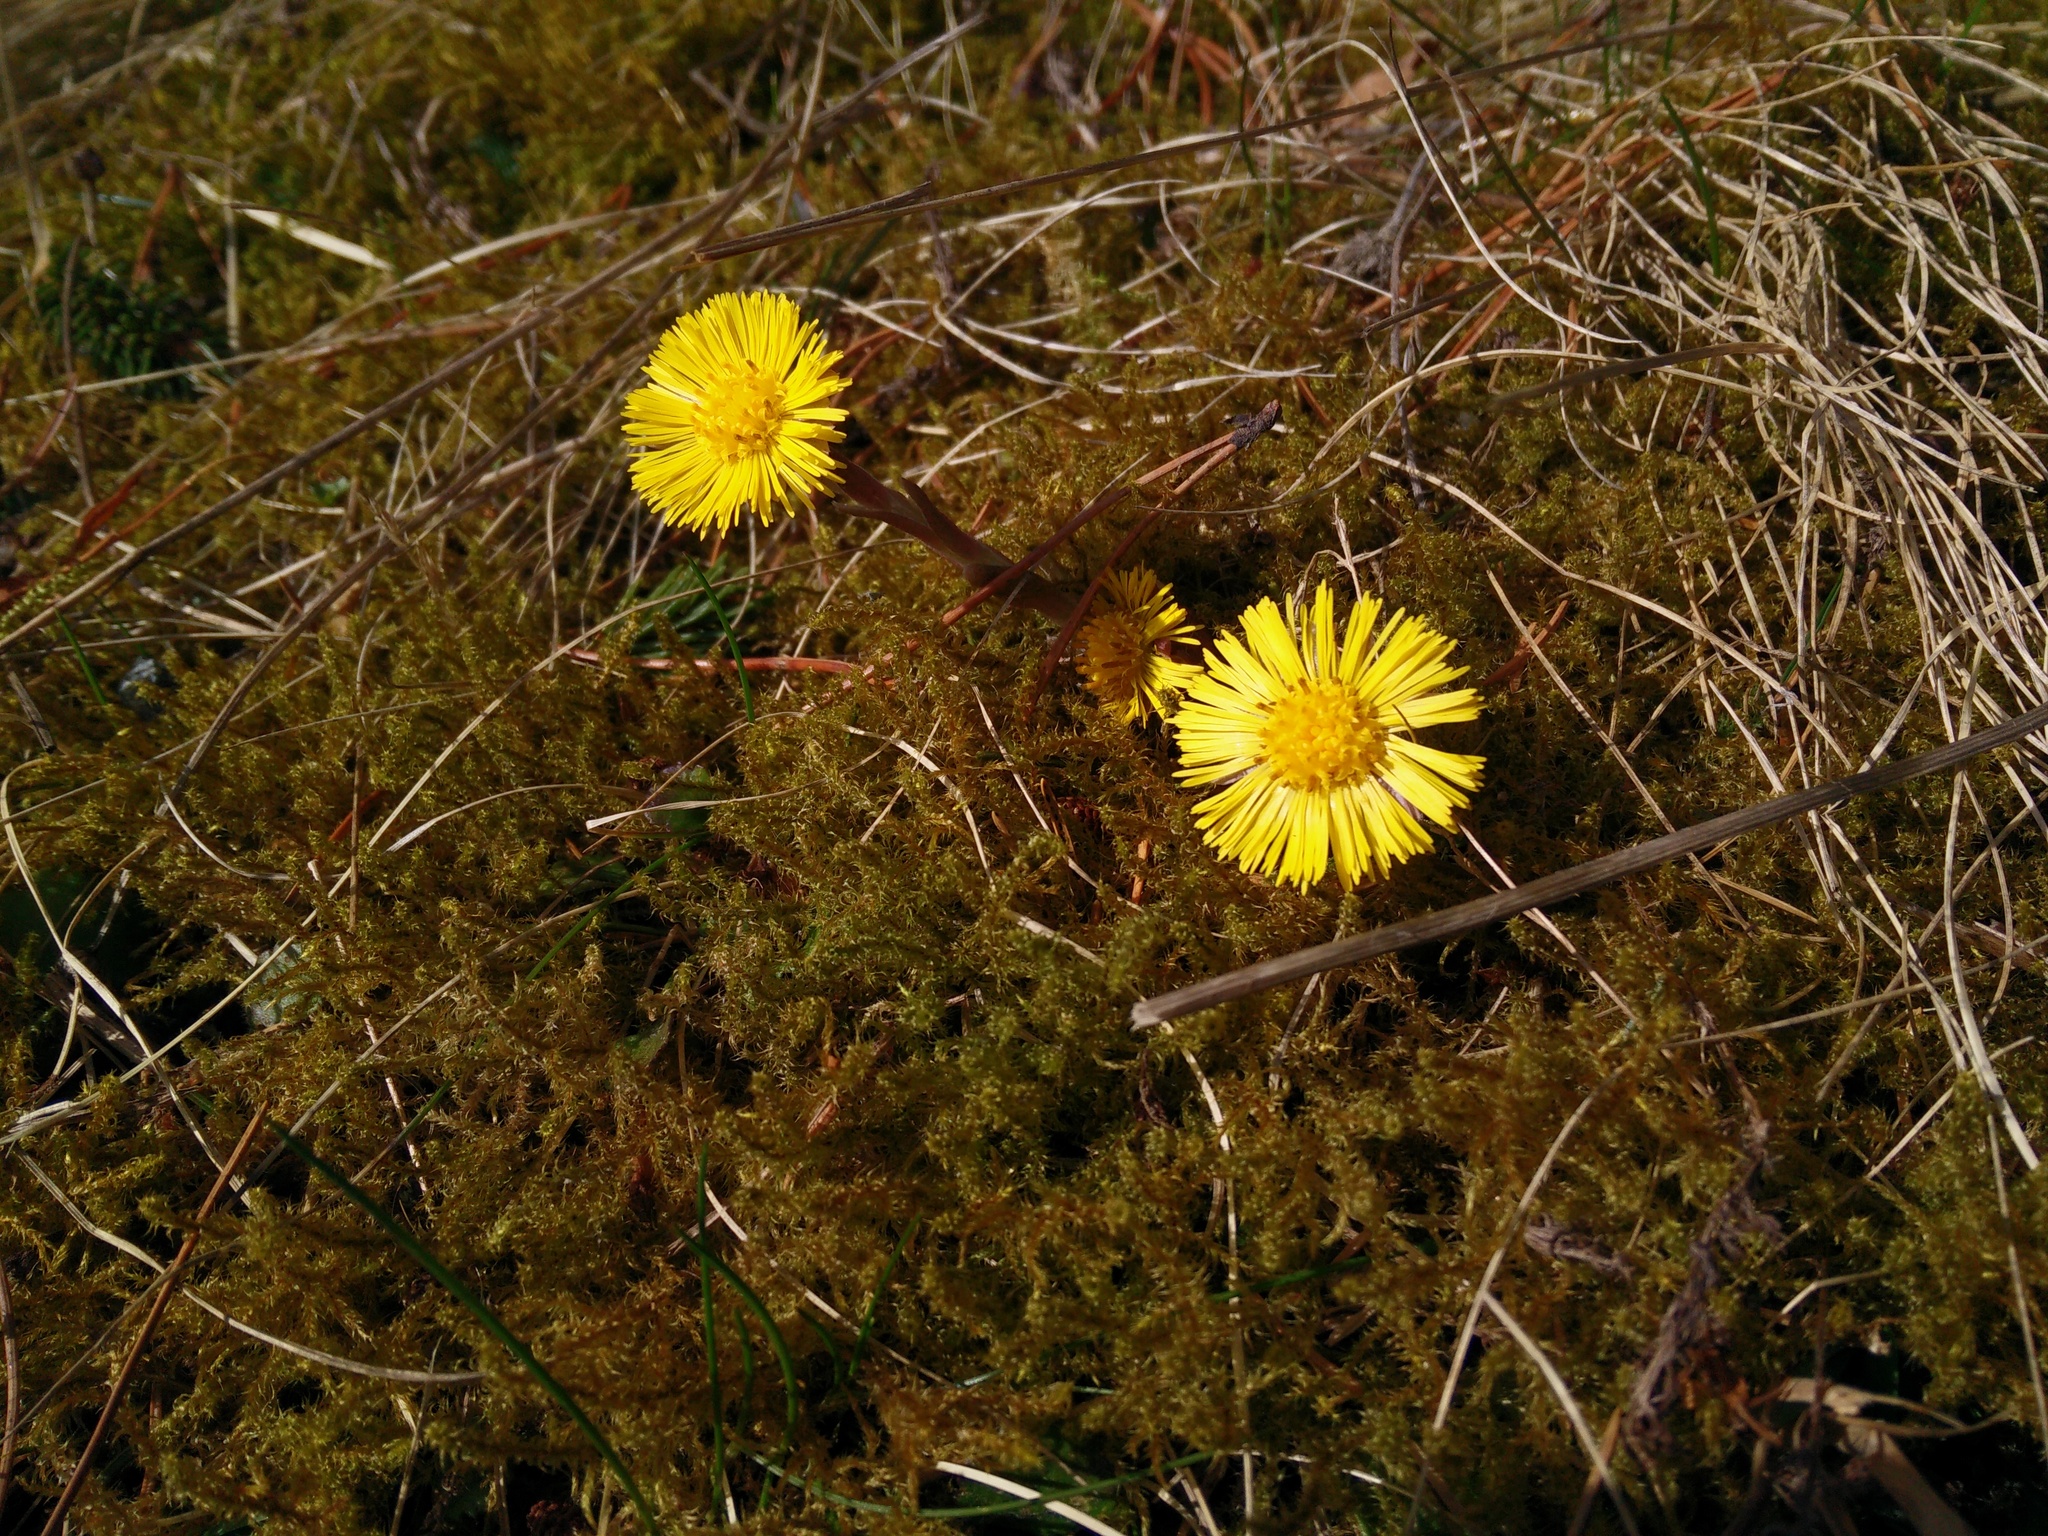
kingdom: Plantae
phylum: Tracheophyta
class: Magnoliopsida
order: Asterales
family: Asteraceae
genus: Tussilago
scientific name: Tussilago farfara
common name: Coltsfoot
